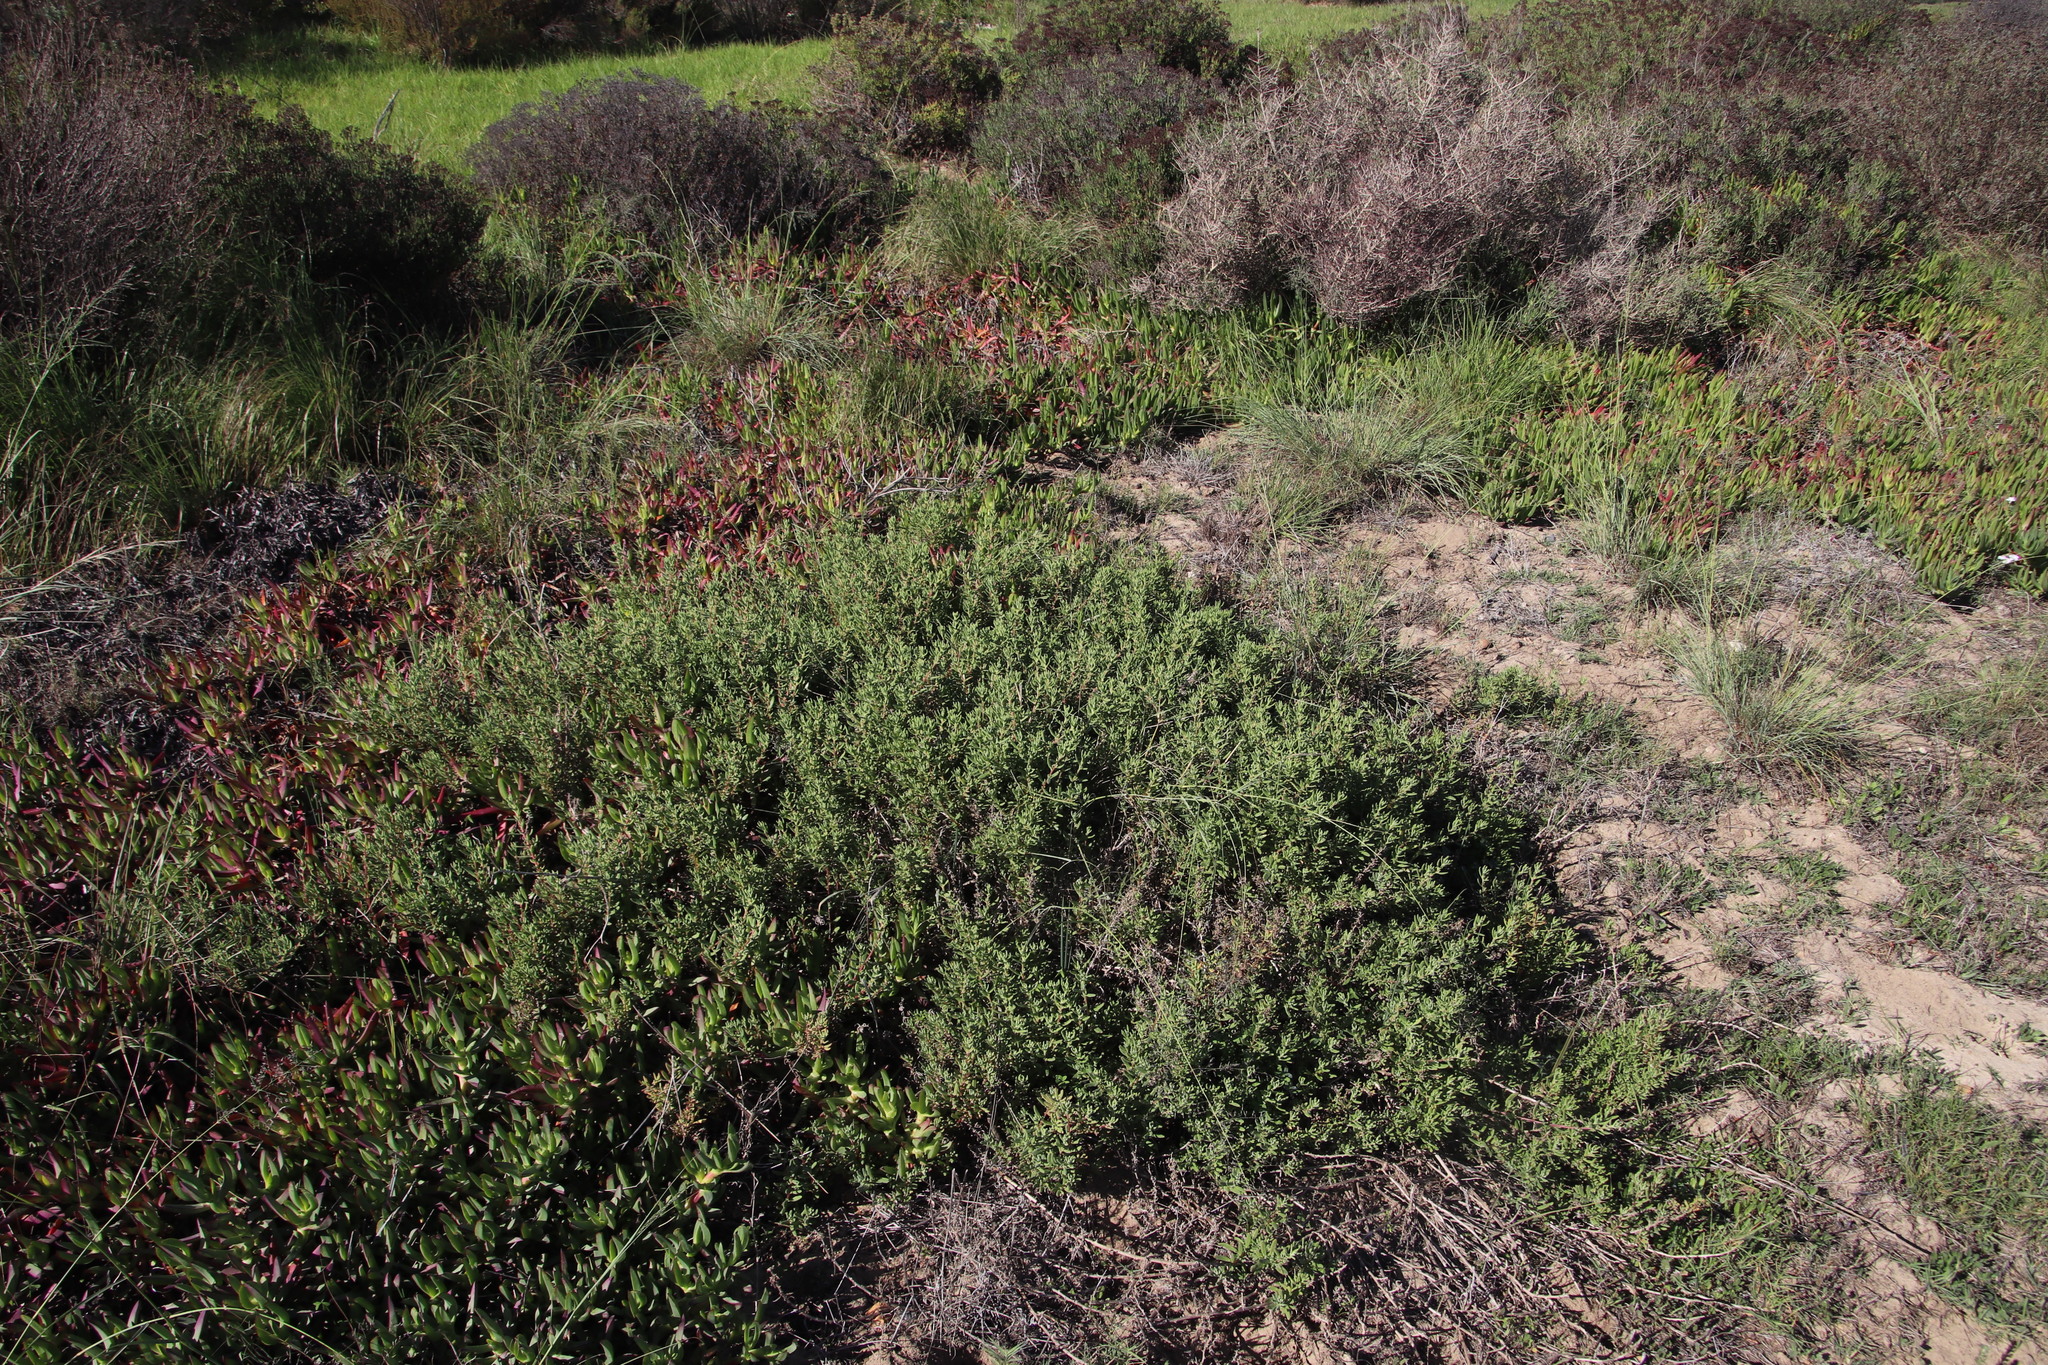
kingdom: Plantae
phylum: Tracheophyta
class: Magnoliopsida
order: Caryophyllales
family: Aizoaceae
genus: Tetragonia
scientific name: Tetragonia fruticosa
